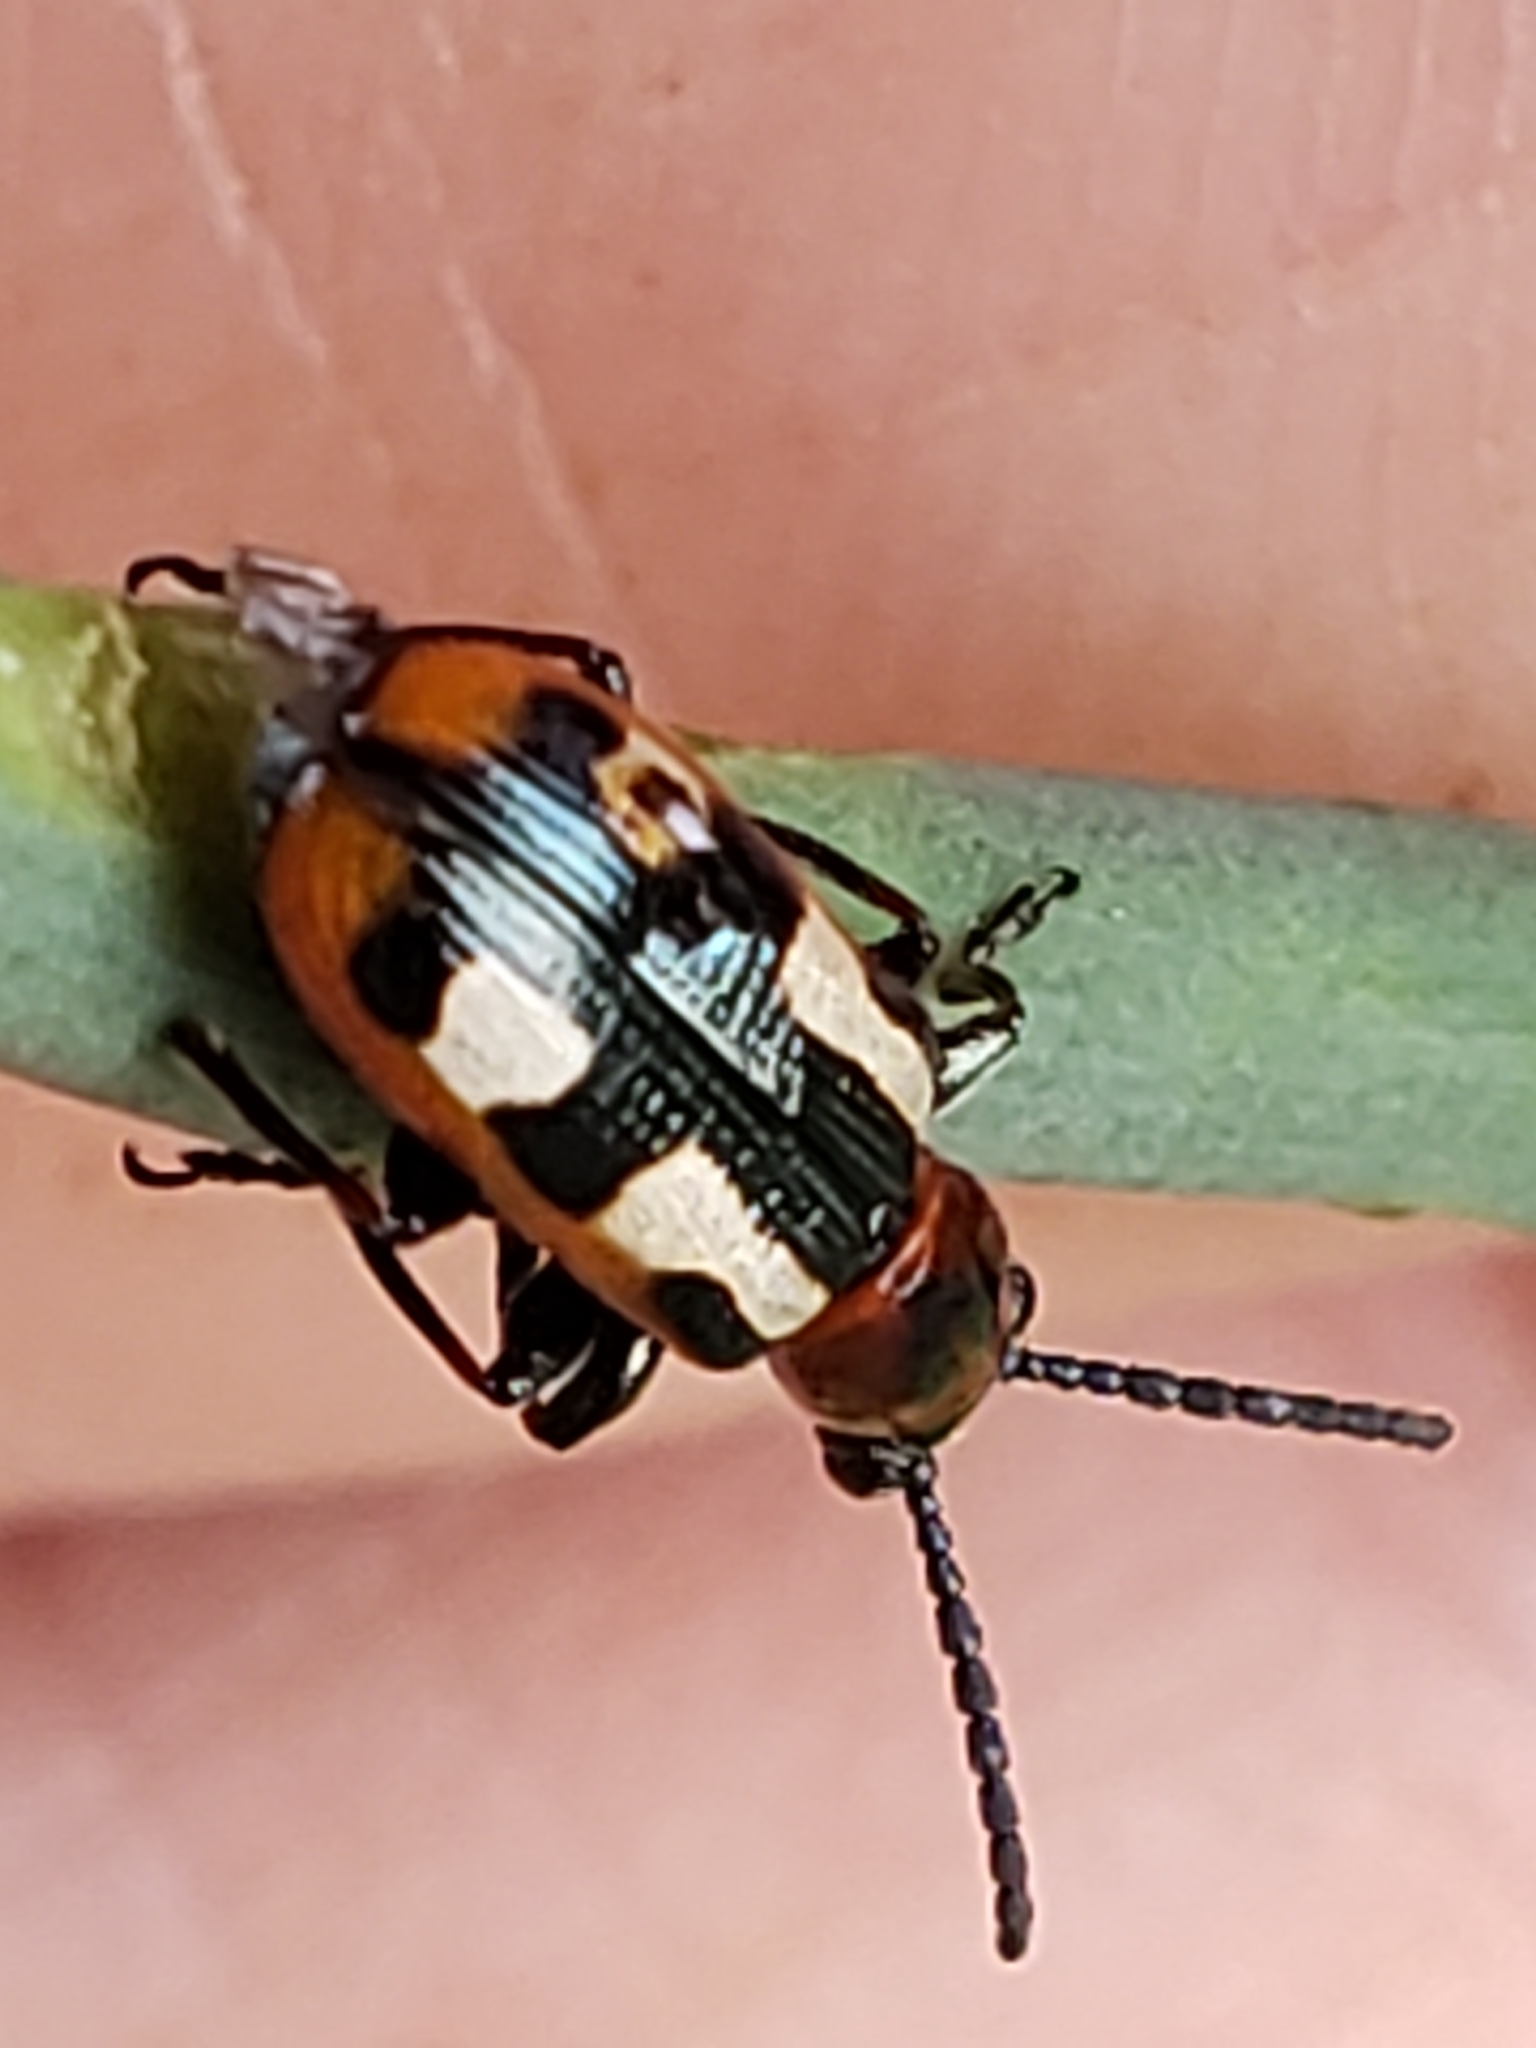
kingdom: Animalia
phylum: Arthropoda
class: Insecta
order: Coleoptera
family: Chrysomelidae
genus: Crioceris
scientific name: Crioceris asparagi
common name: Asparagus beetle
